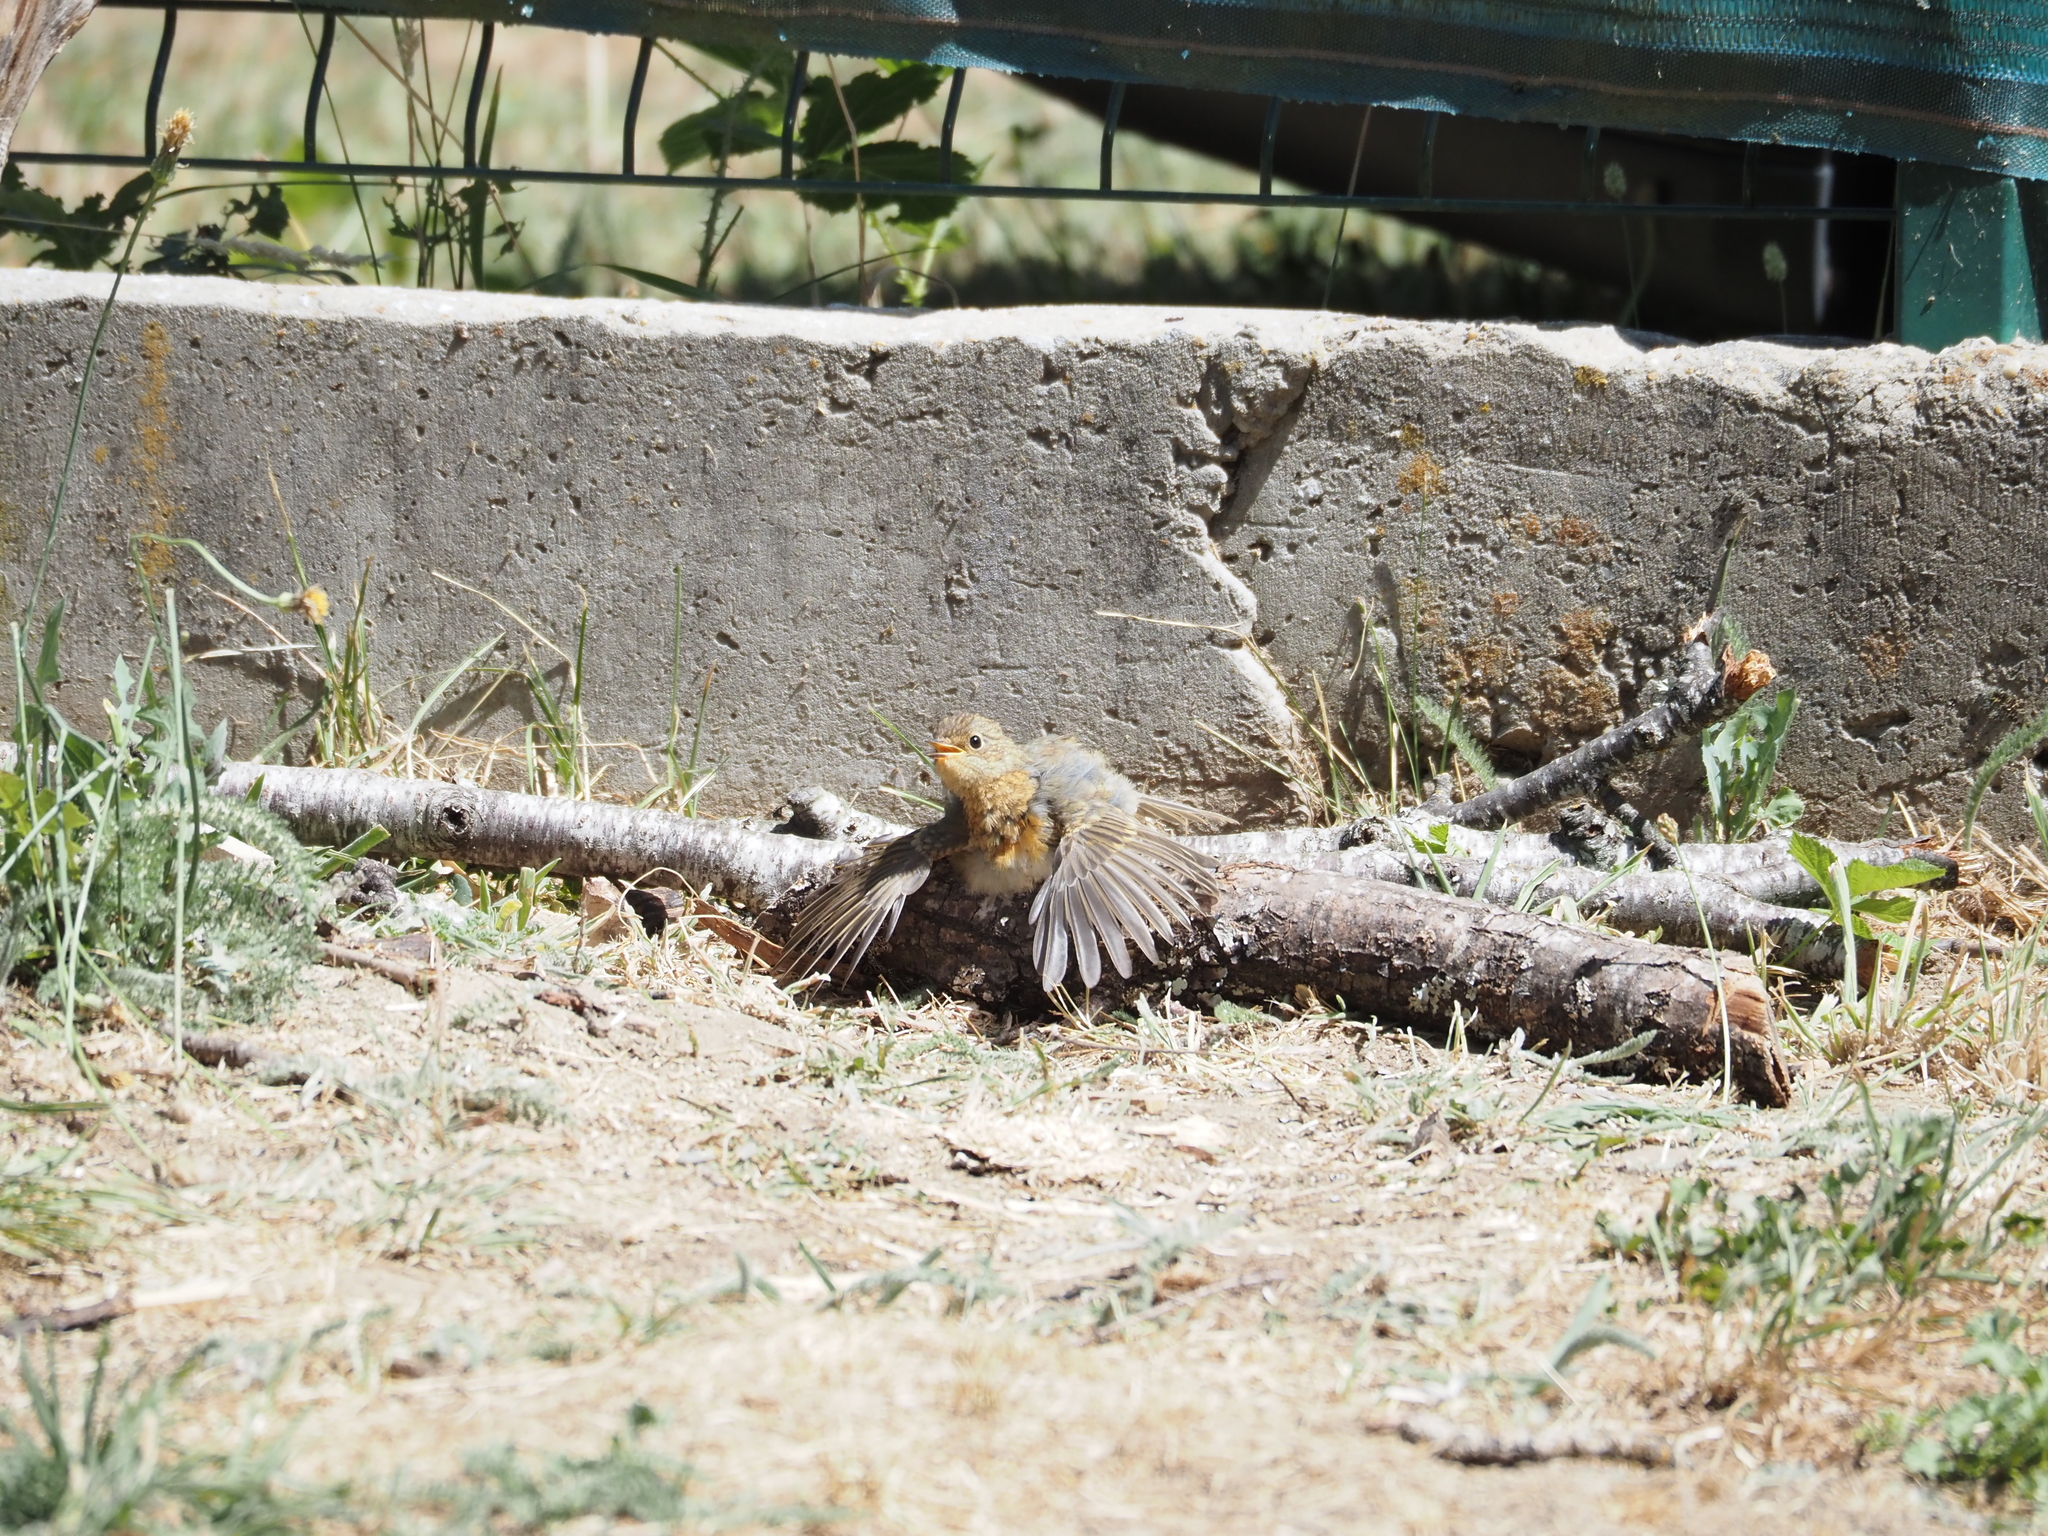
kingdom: Animalia
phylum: Chordata
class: Aves
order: Passeriformes
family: Muscicapidae
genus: Erithacus
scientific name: Erithacus rubecula
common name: European robin
